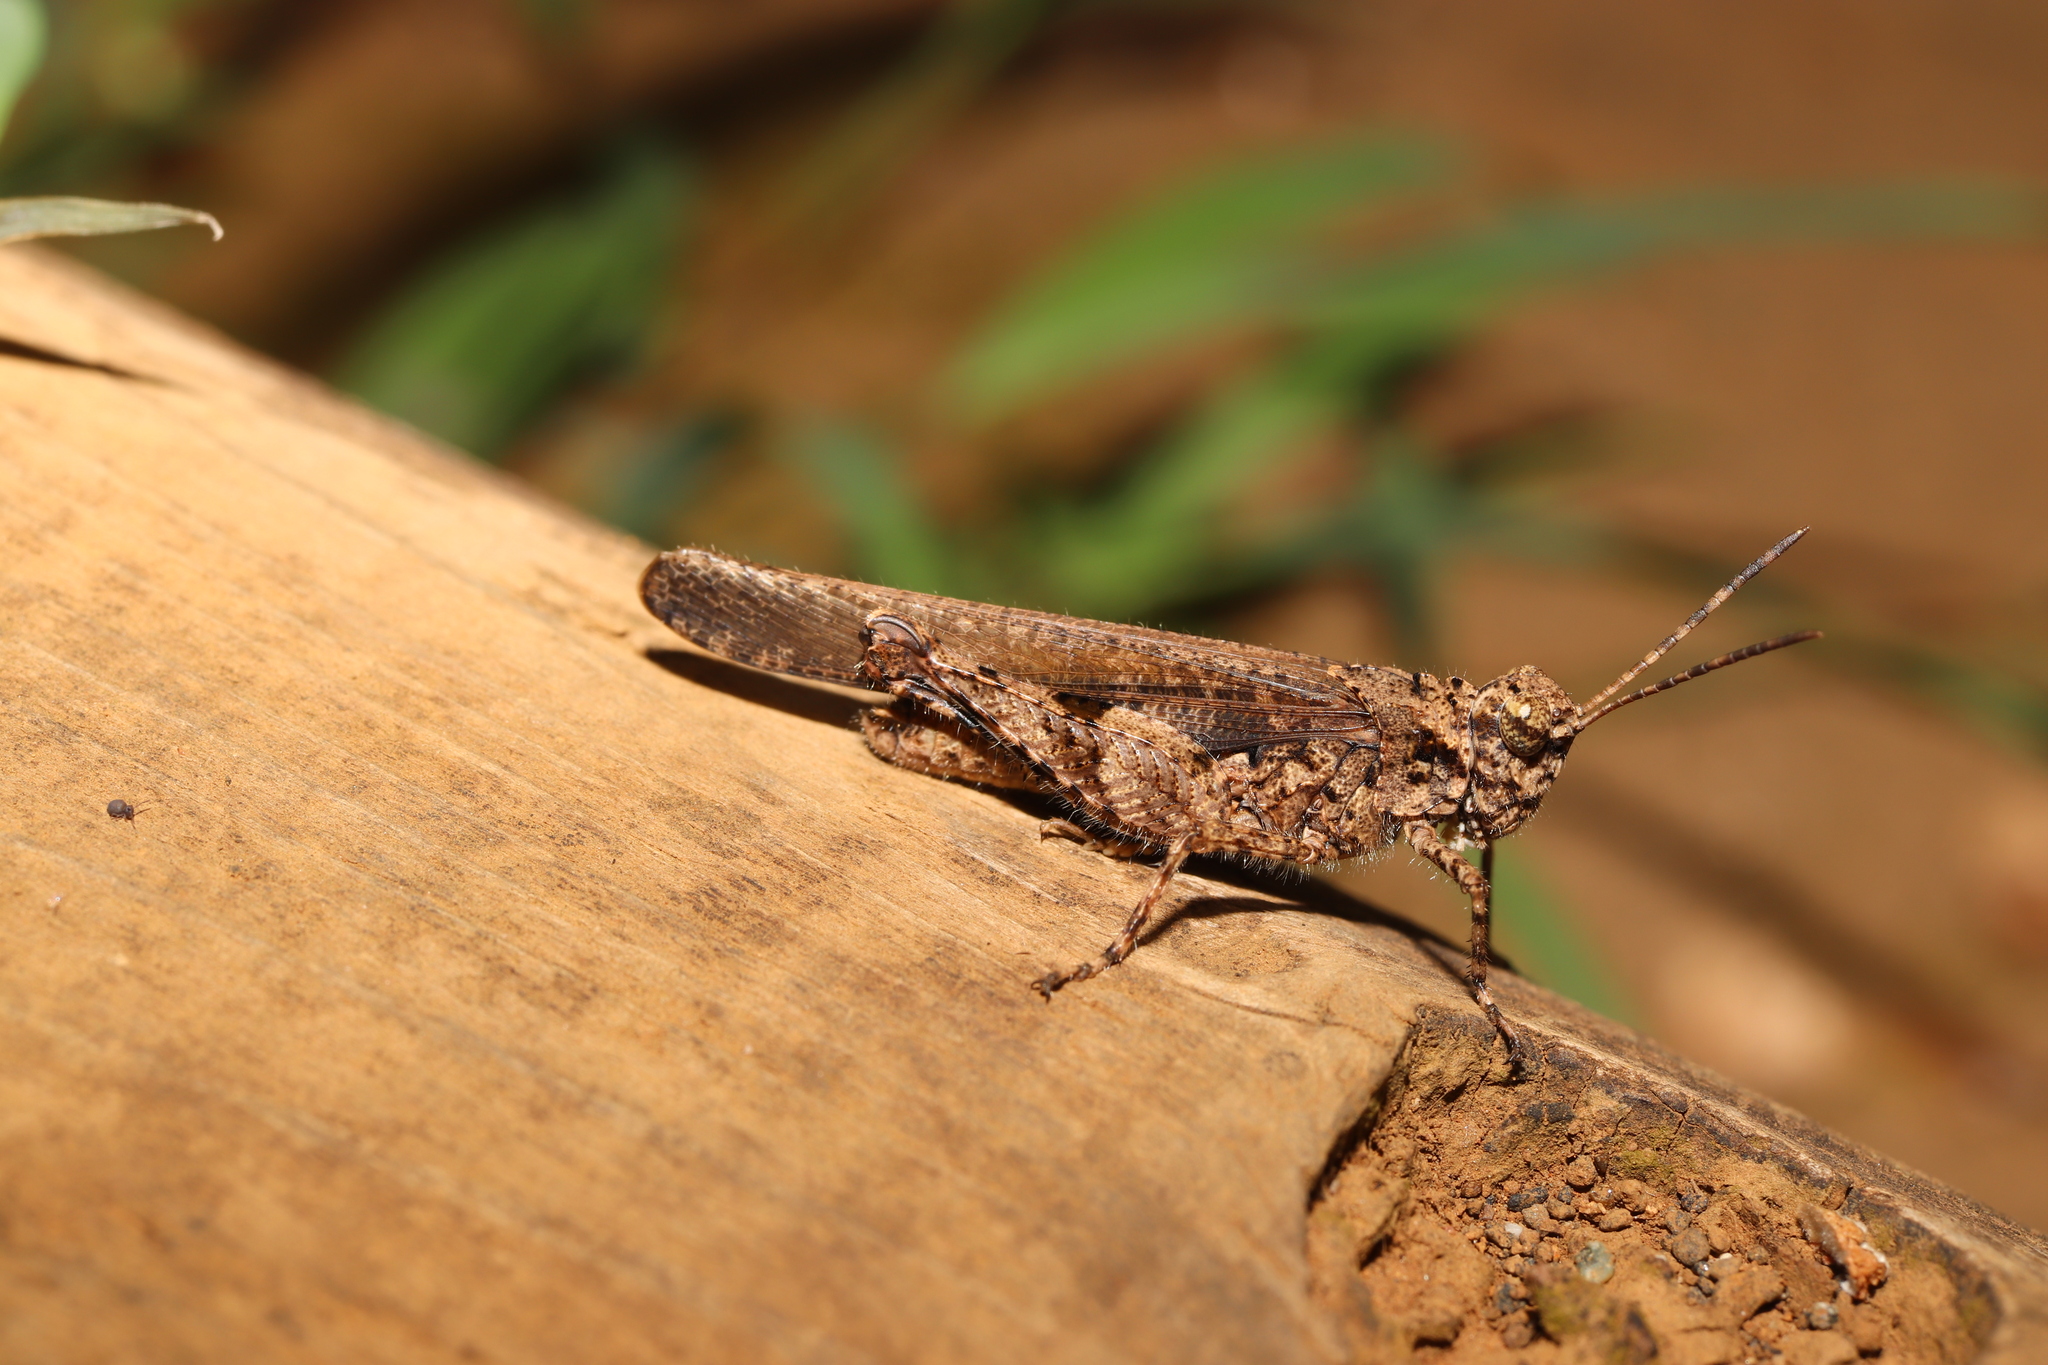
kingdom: Animalia
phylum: Arthropoda
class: Insecta
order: Orthoptera
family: Acrididae
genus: Trilophidia
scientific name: Trilophidia annulata
